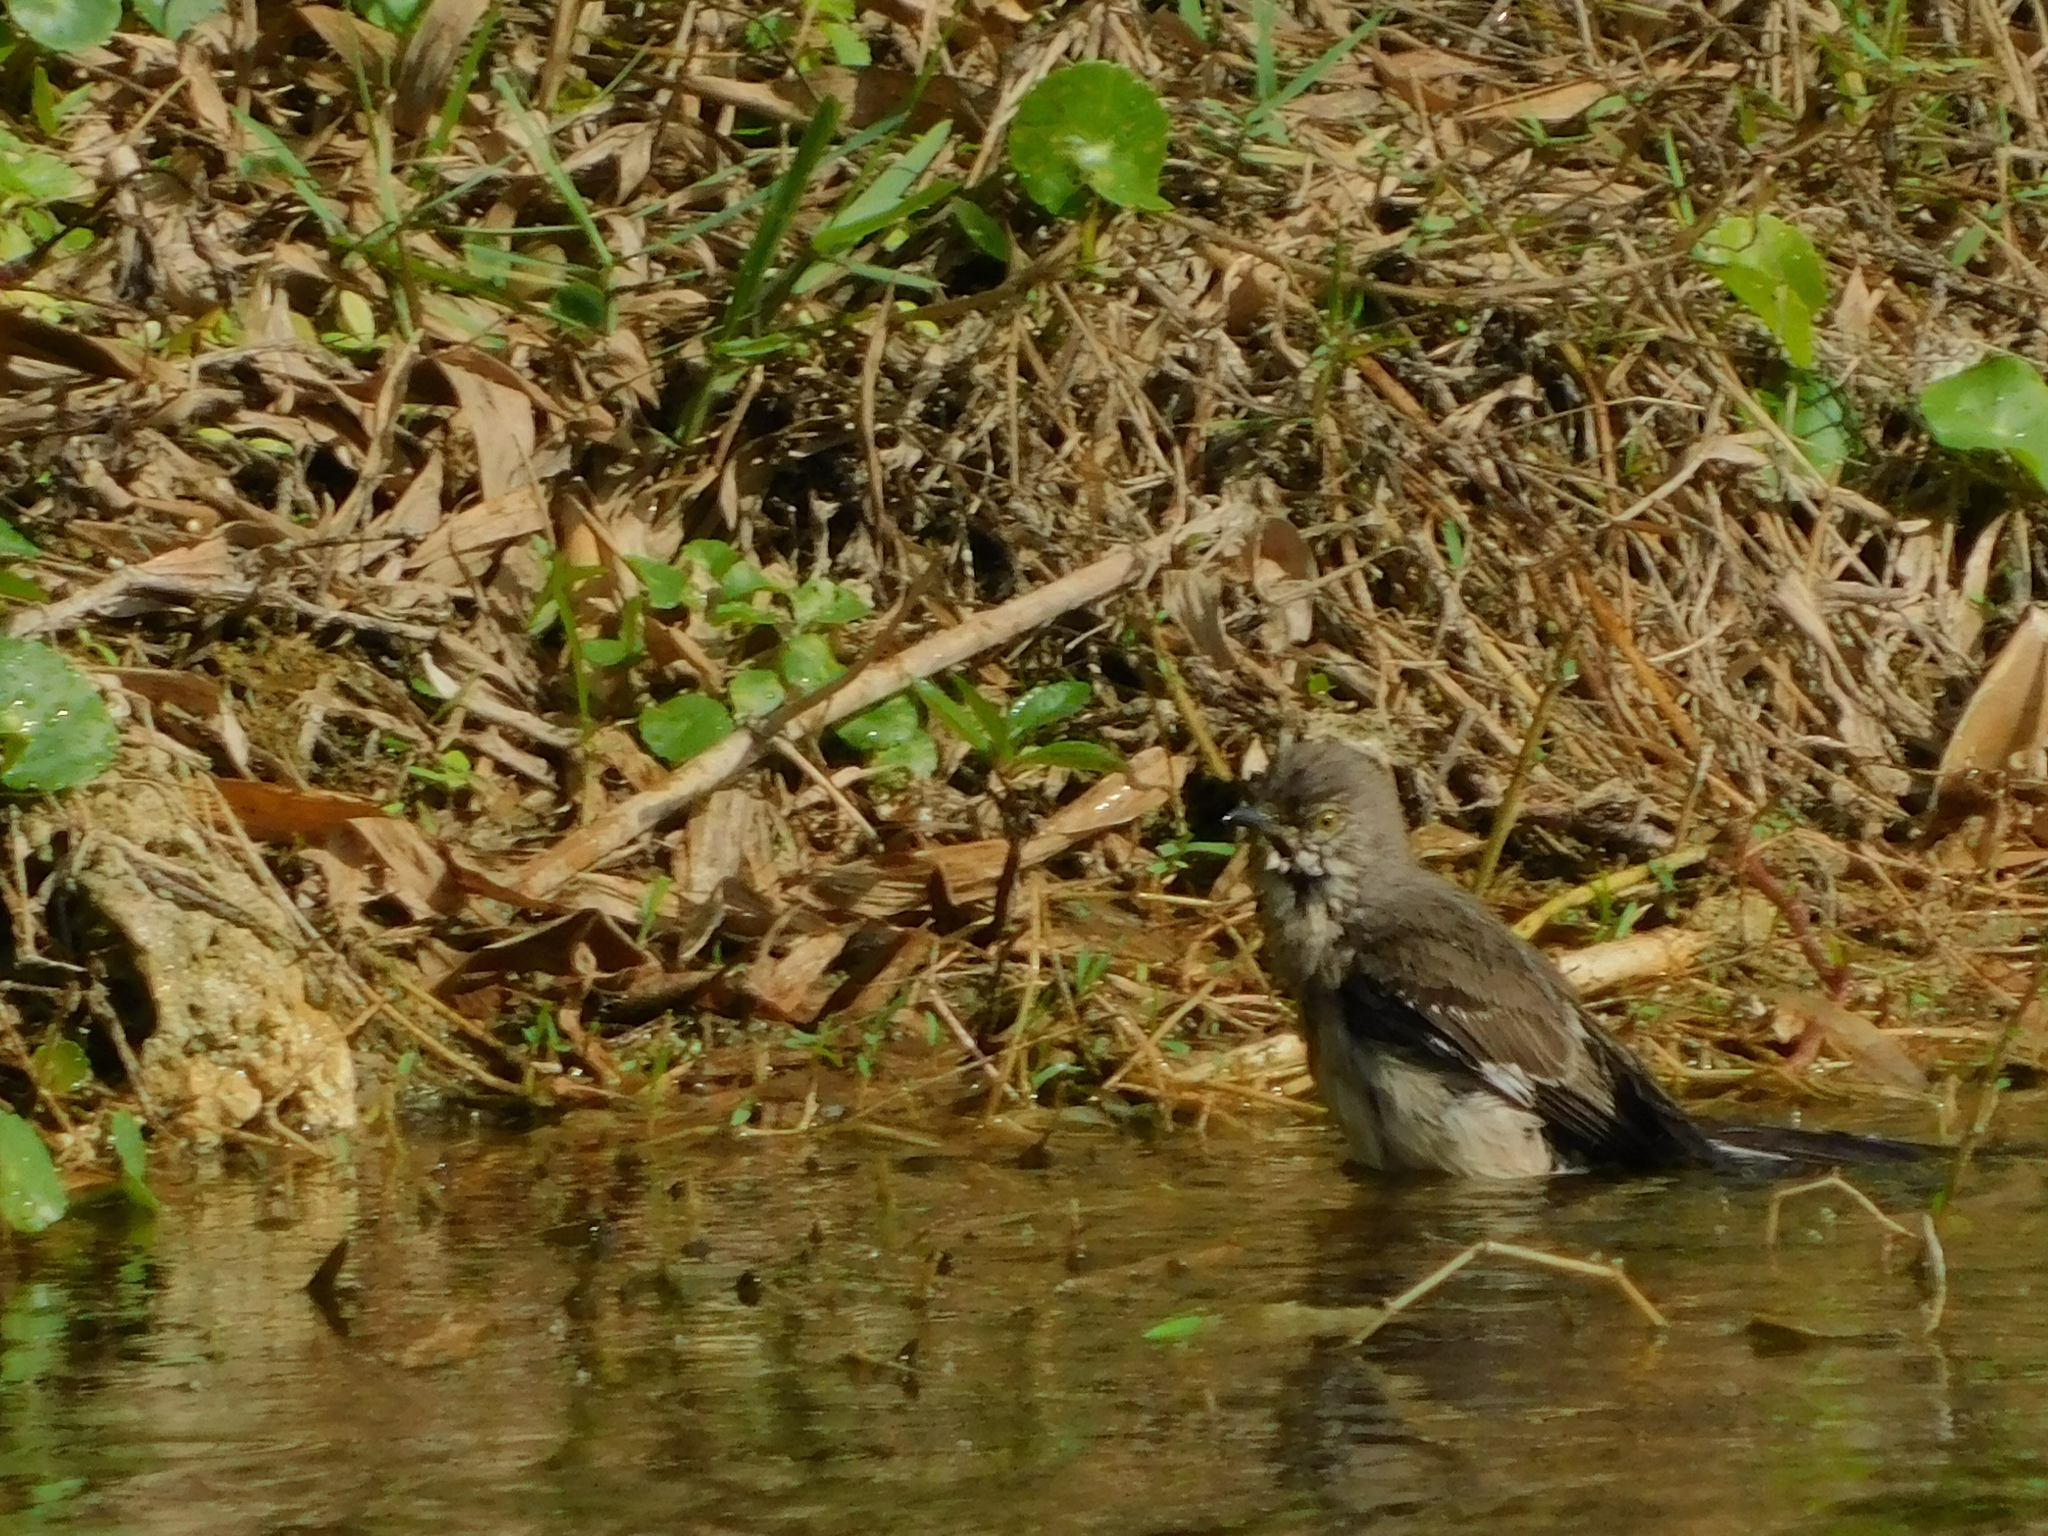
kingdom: Animalia
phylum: Chordata
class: Aves
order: Passeriformes
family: Mimidae
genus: Mimus
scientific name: Mimus polyglottos
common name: Northern mockingbird
